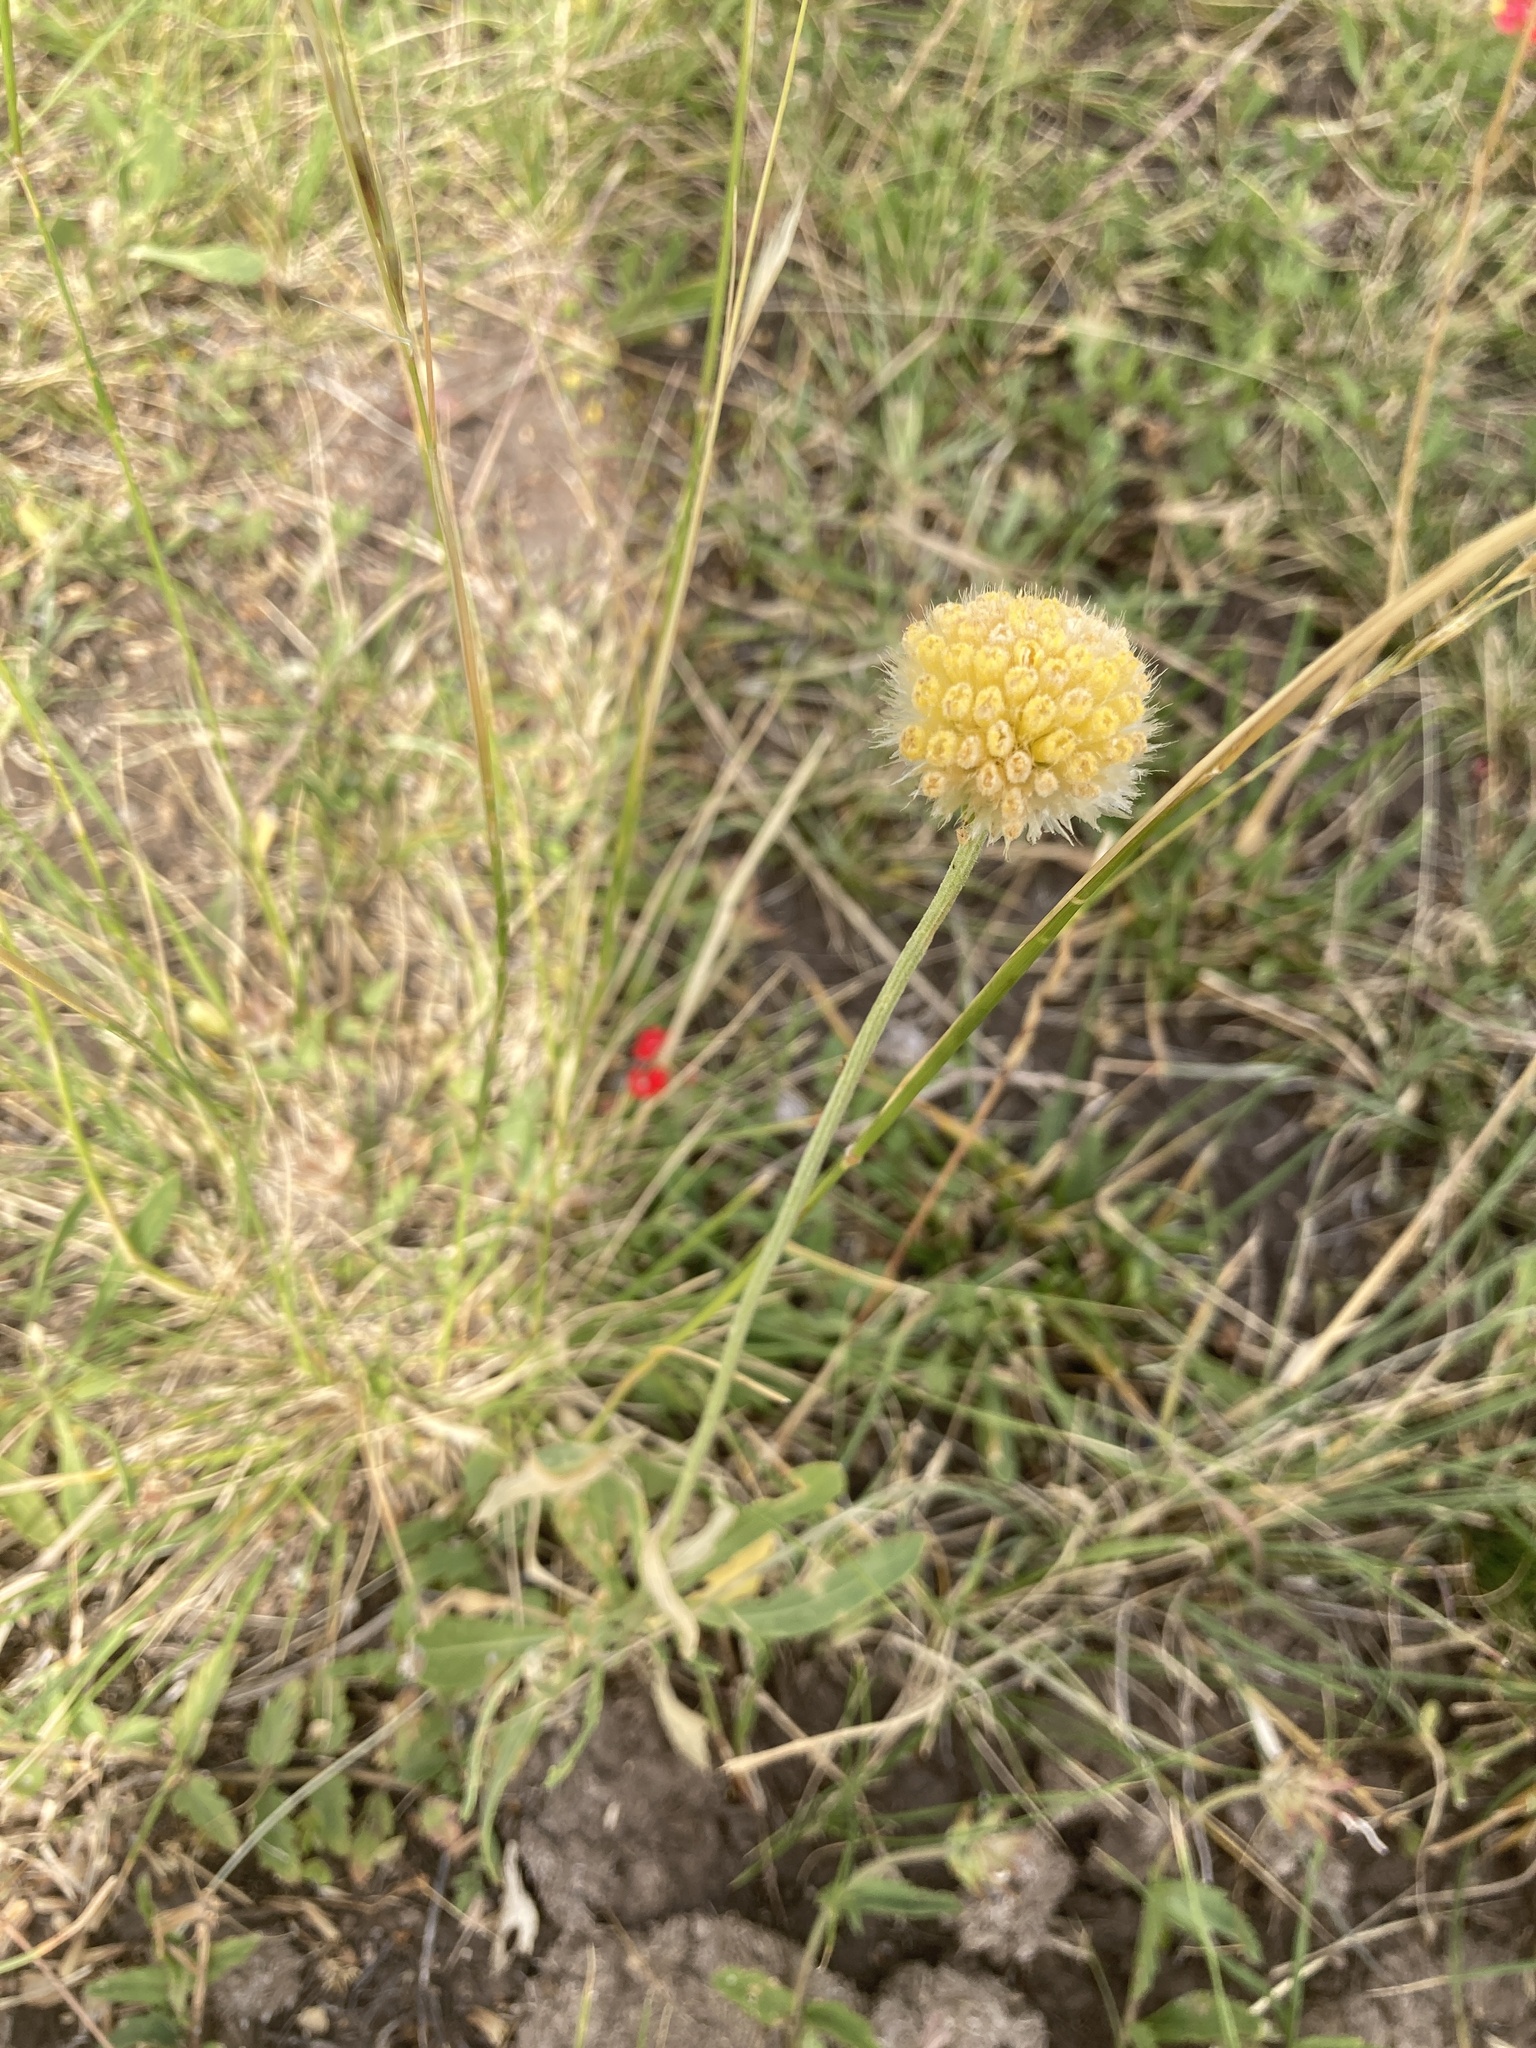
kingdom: Plantae
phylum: Tracheophyta
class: Magnoliopsida
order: Asterales
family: Asteraceae
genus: Gaillardia
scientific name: Gaillardia megapotamica
